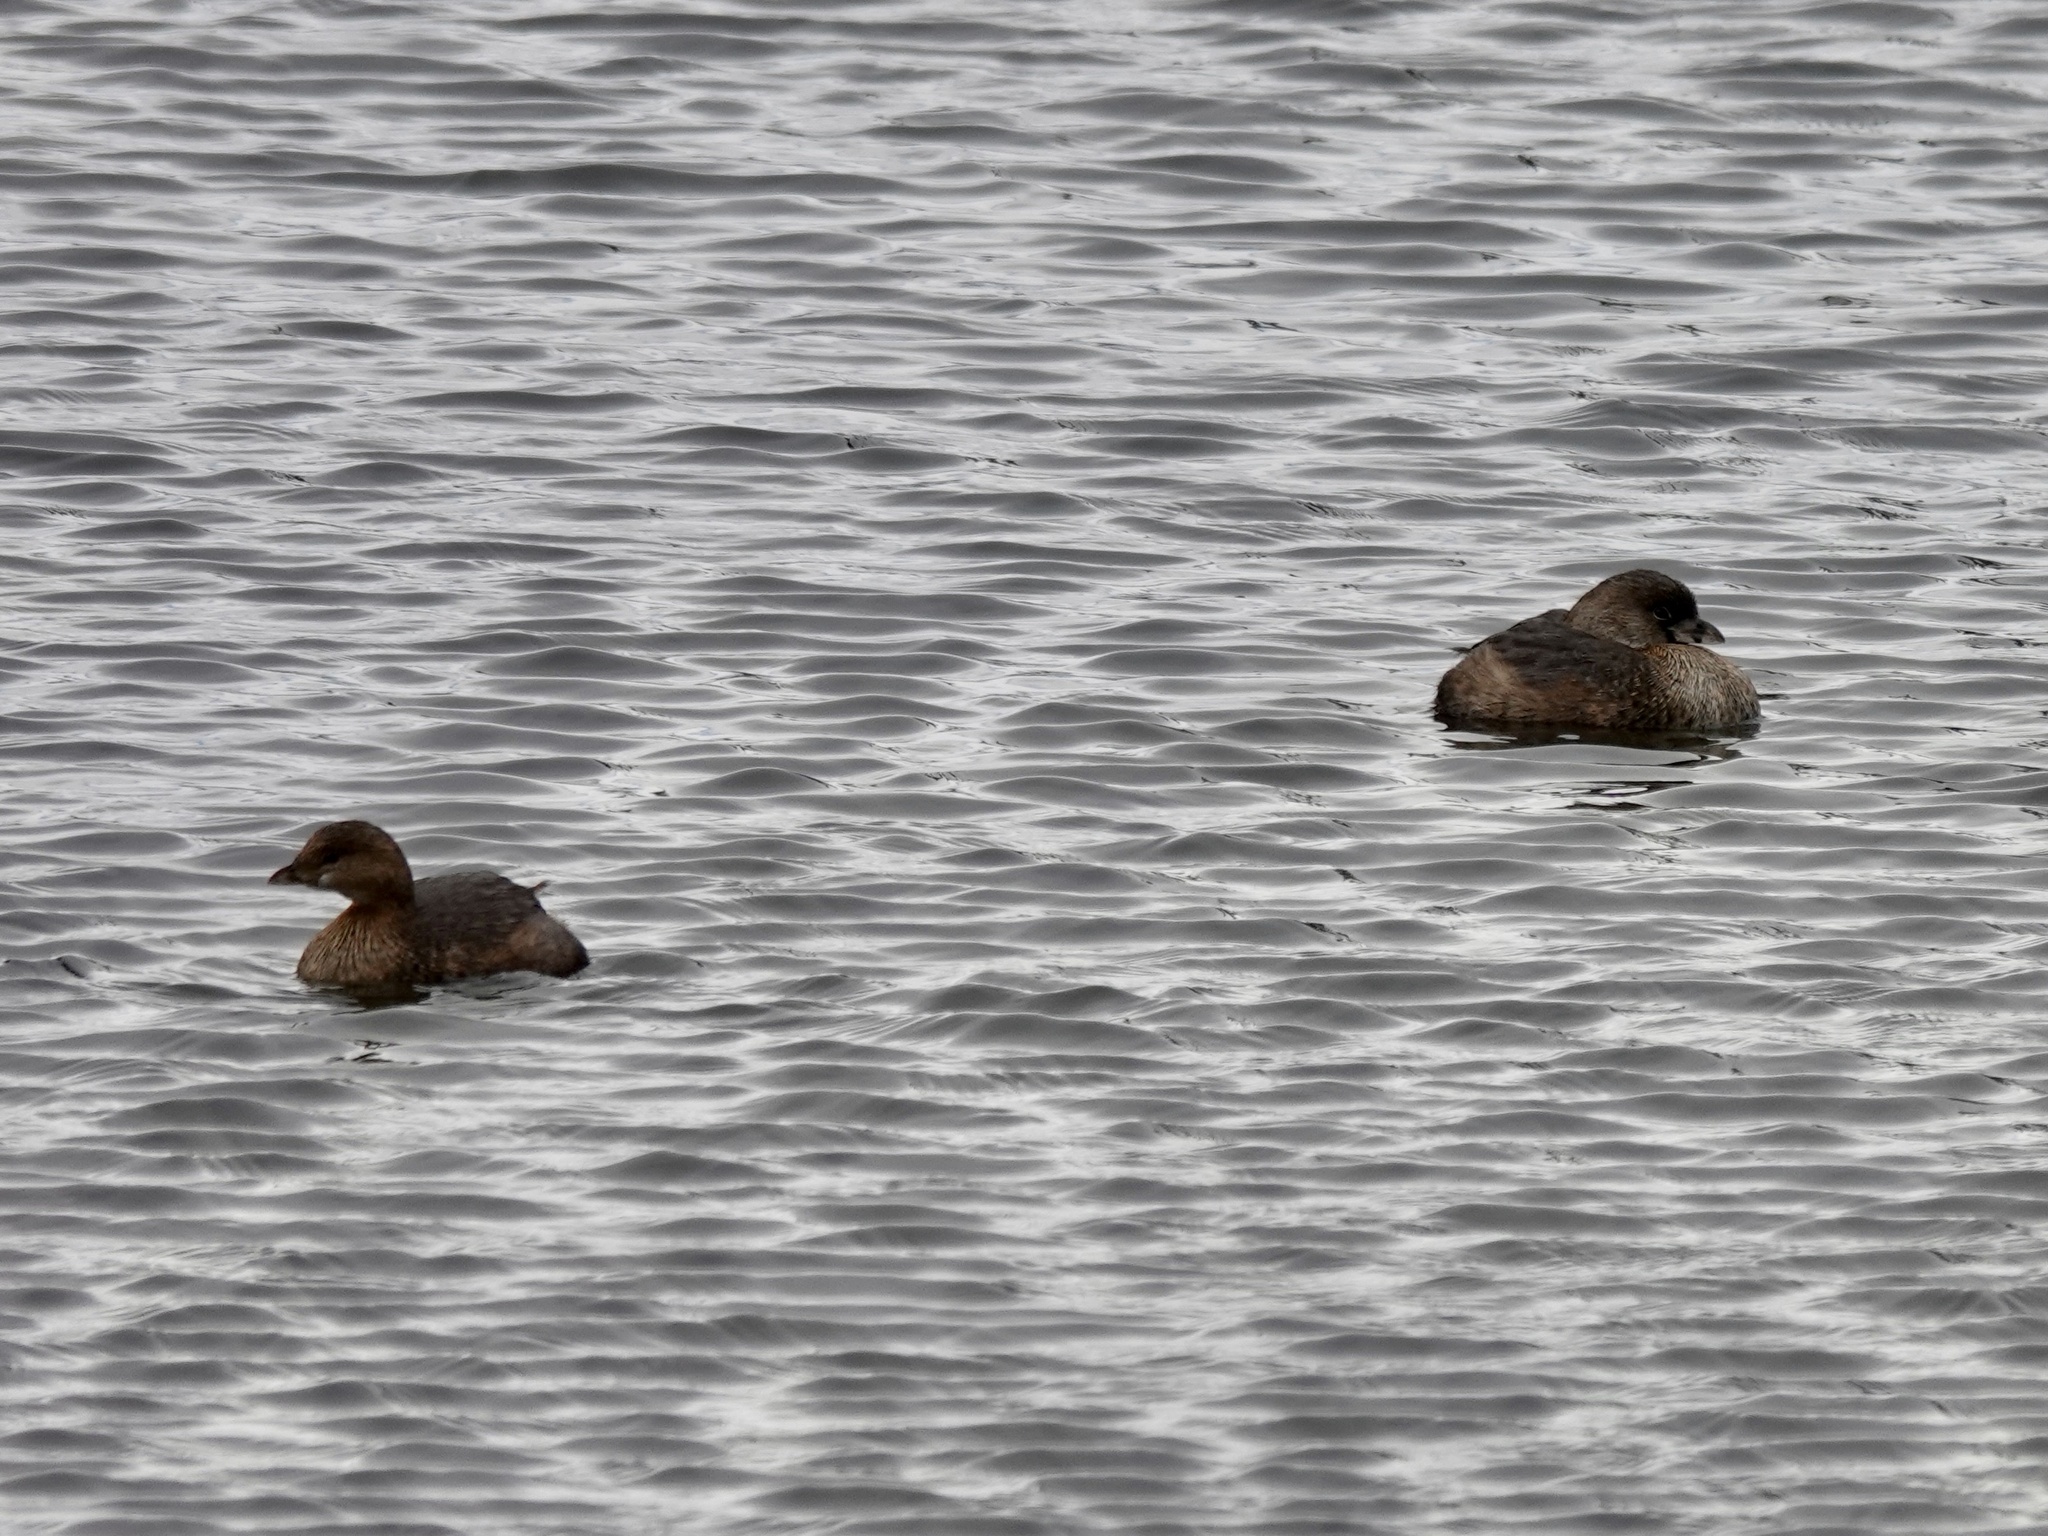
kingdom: Animalia
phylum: Chordata
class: Aves
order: Podicipediformes
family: Podicipedidae
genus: Podilymbus
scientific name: Podilymbus podiceps
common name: Pied-billed grebe
